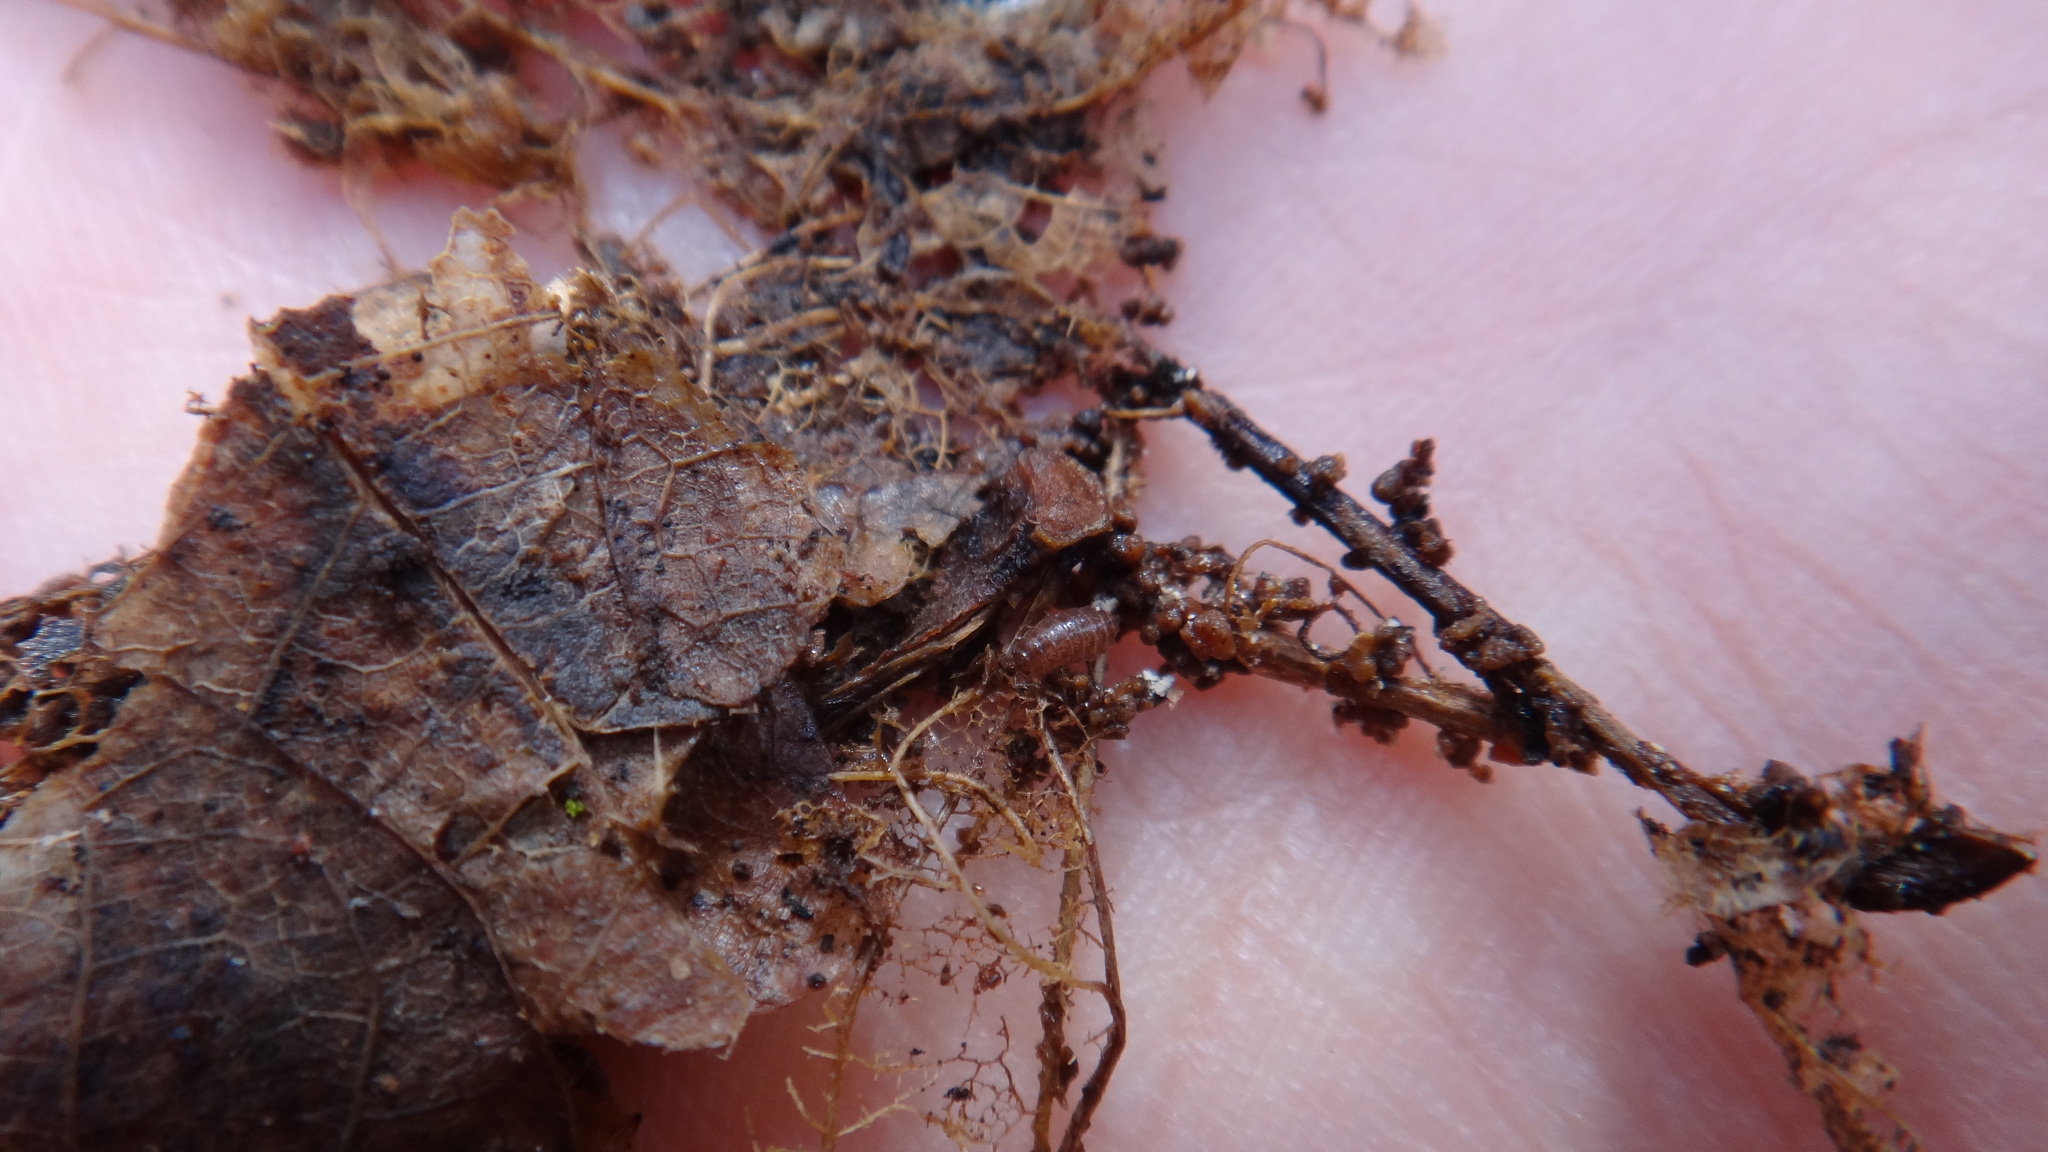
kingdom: Animalia
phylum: Arthropoda
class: Malacostraca
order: Isopoda
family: Trichoniscidae
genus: Hyloniscus
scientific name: Hyloniscus riparius
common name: Isopod
